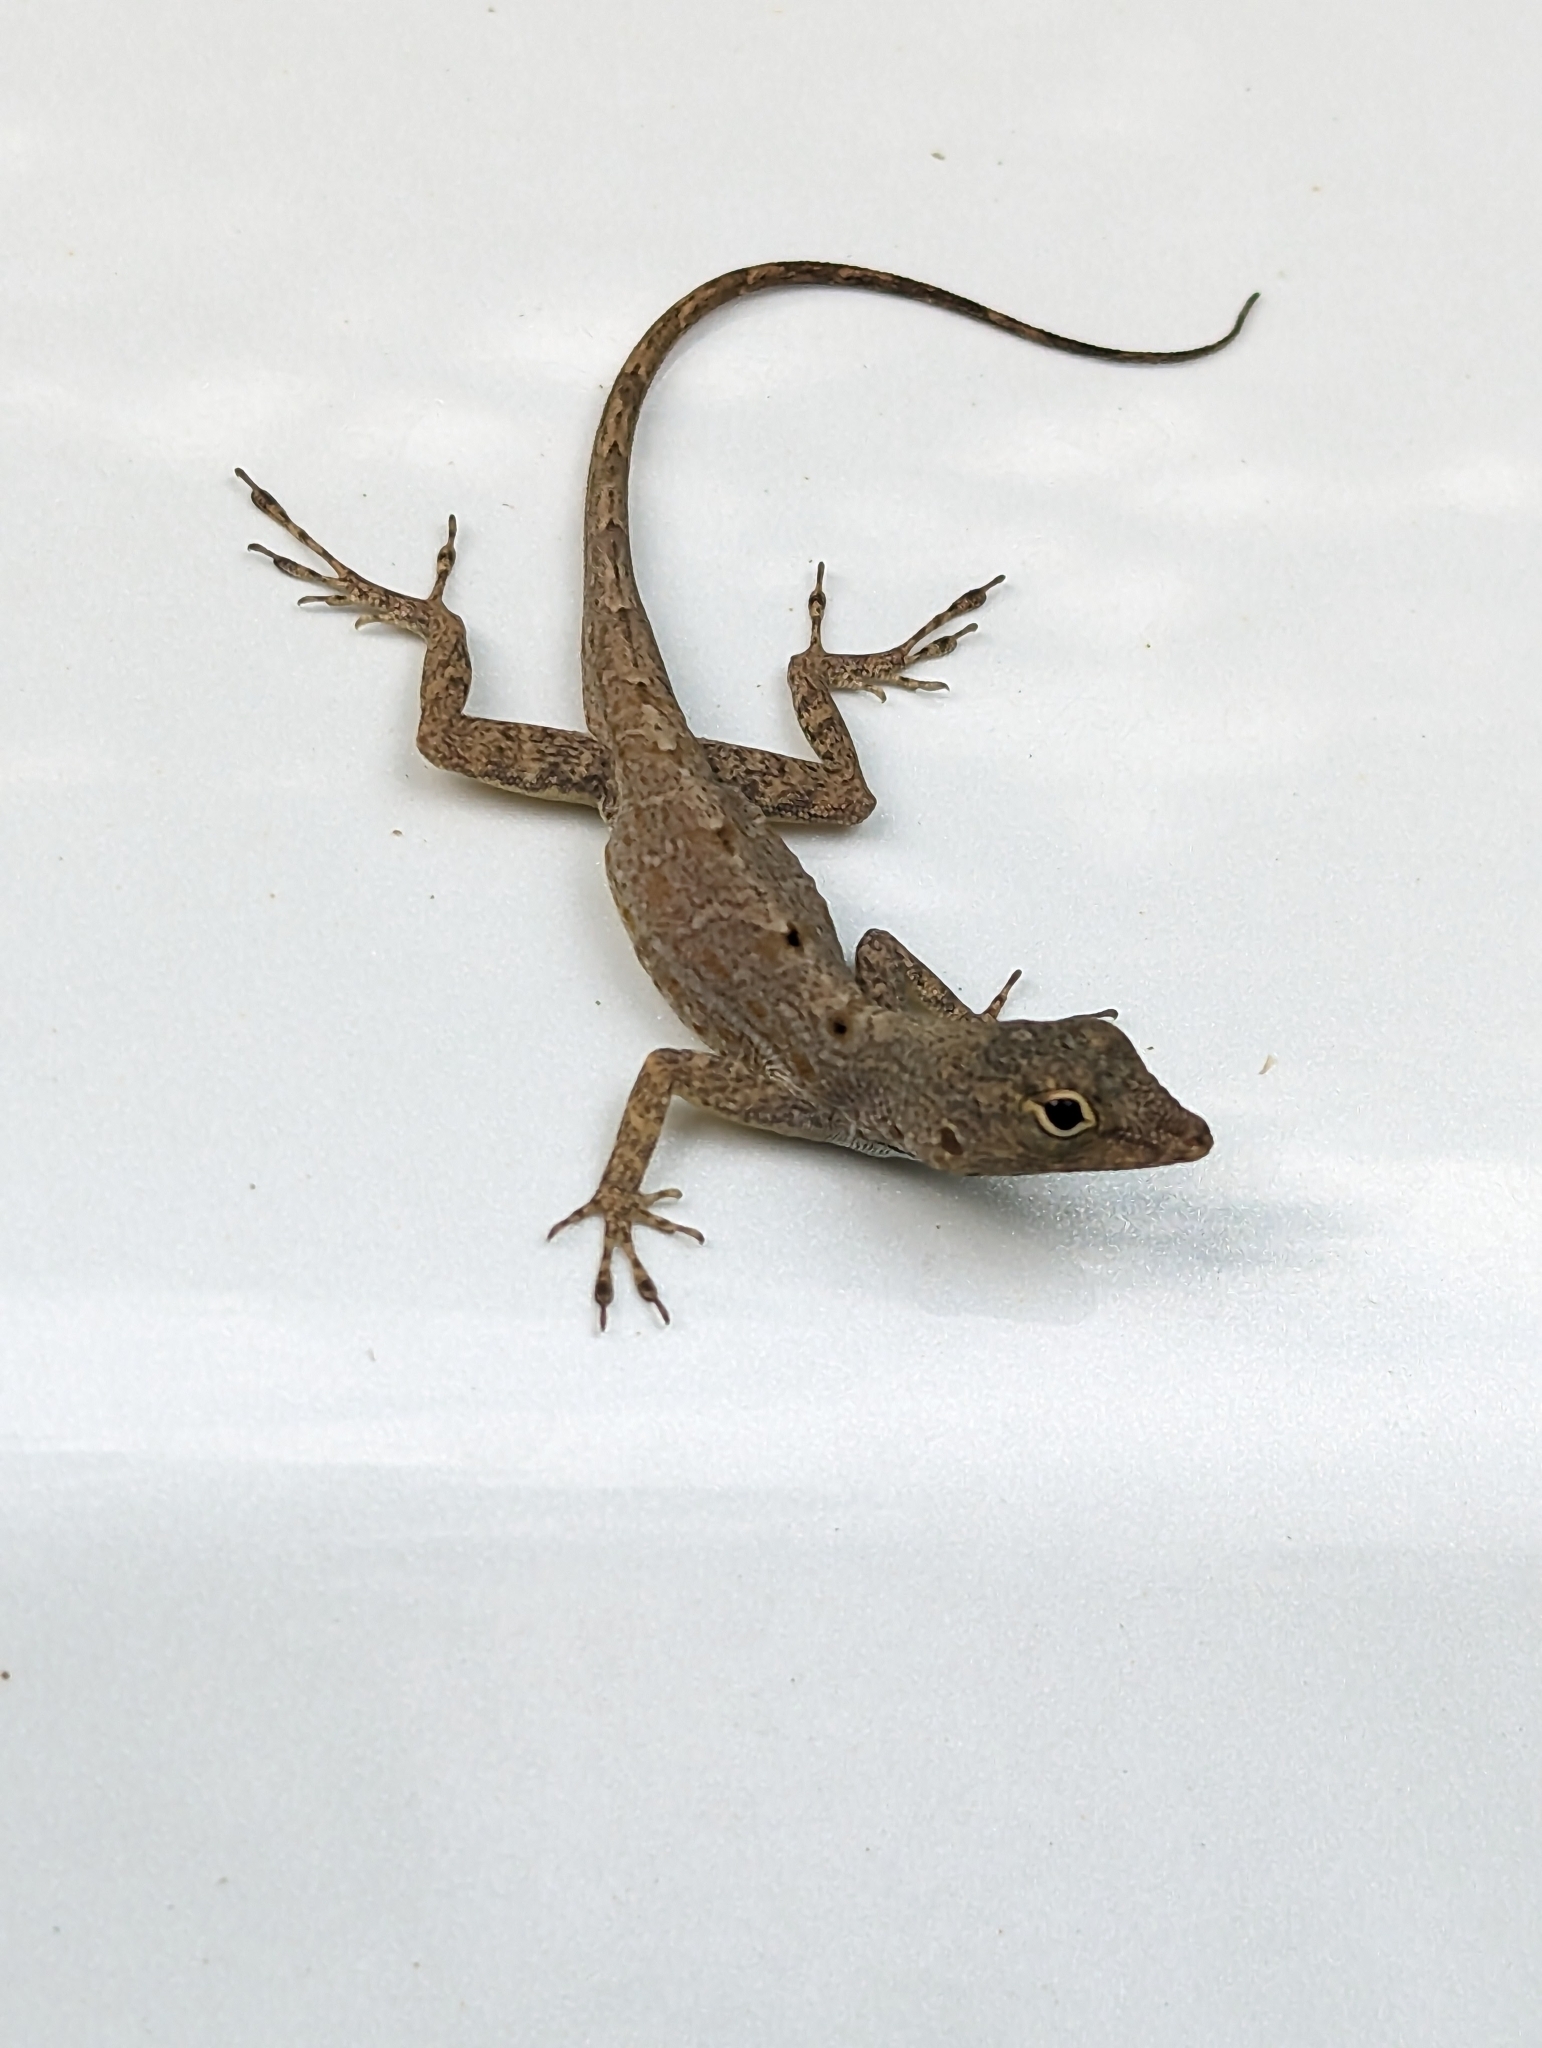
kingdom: Animalia
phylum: Chordata
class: Squamata
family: Dactyloidae
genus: Anolis
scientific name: Anolis stratulus
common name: Banded anole
